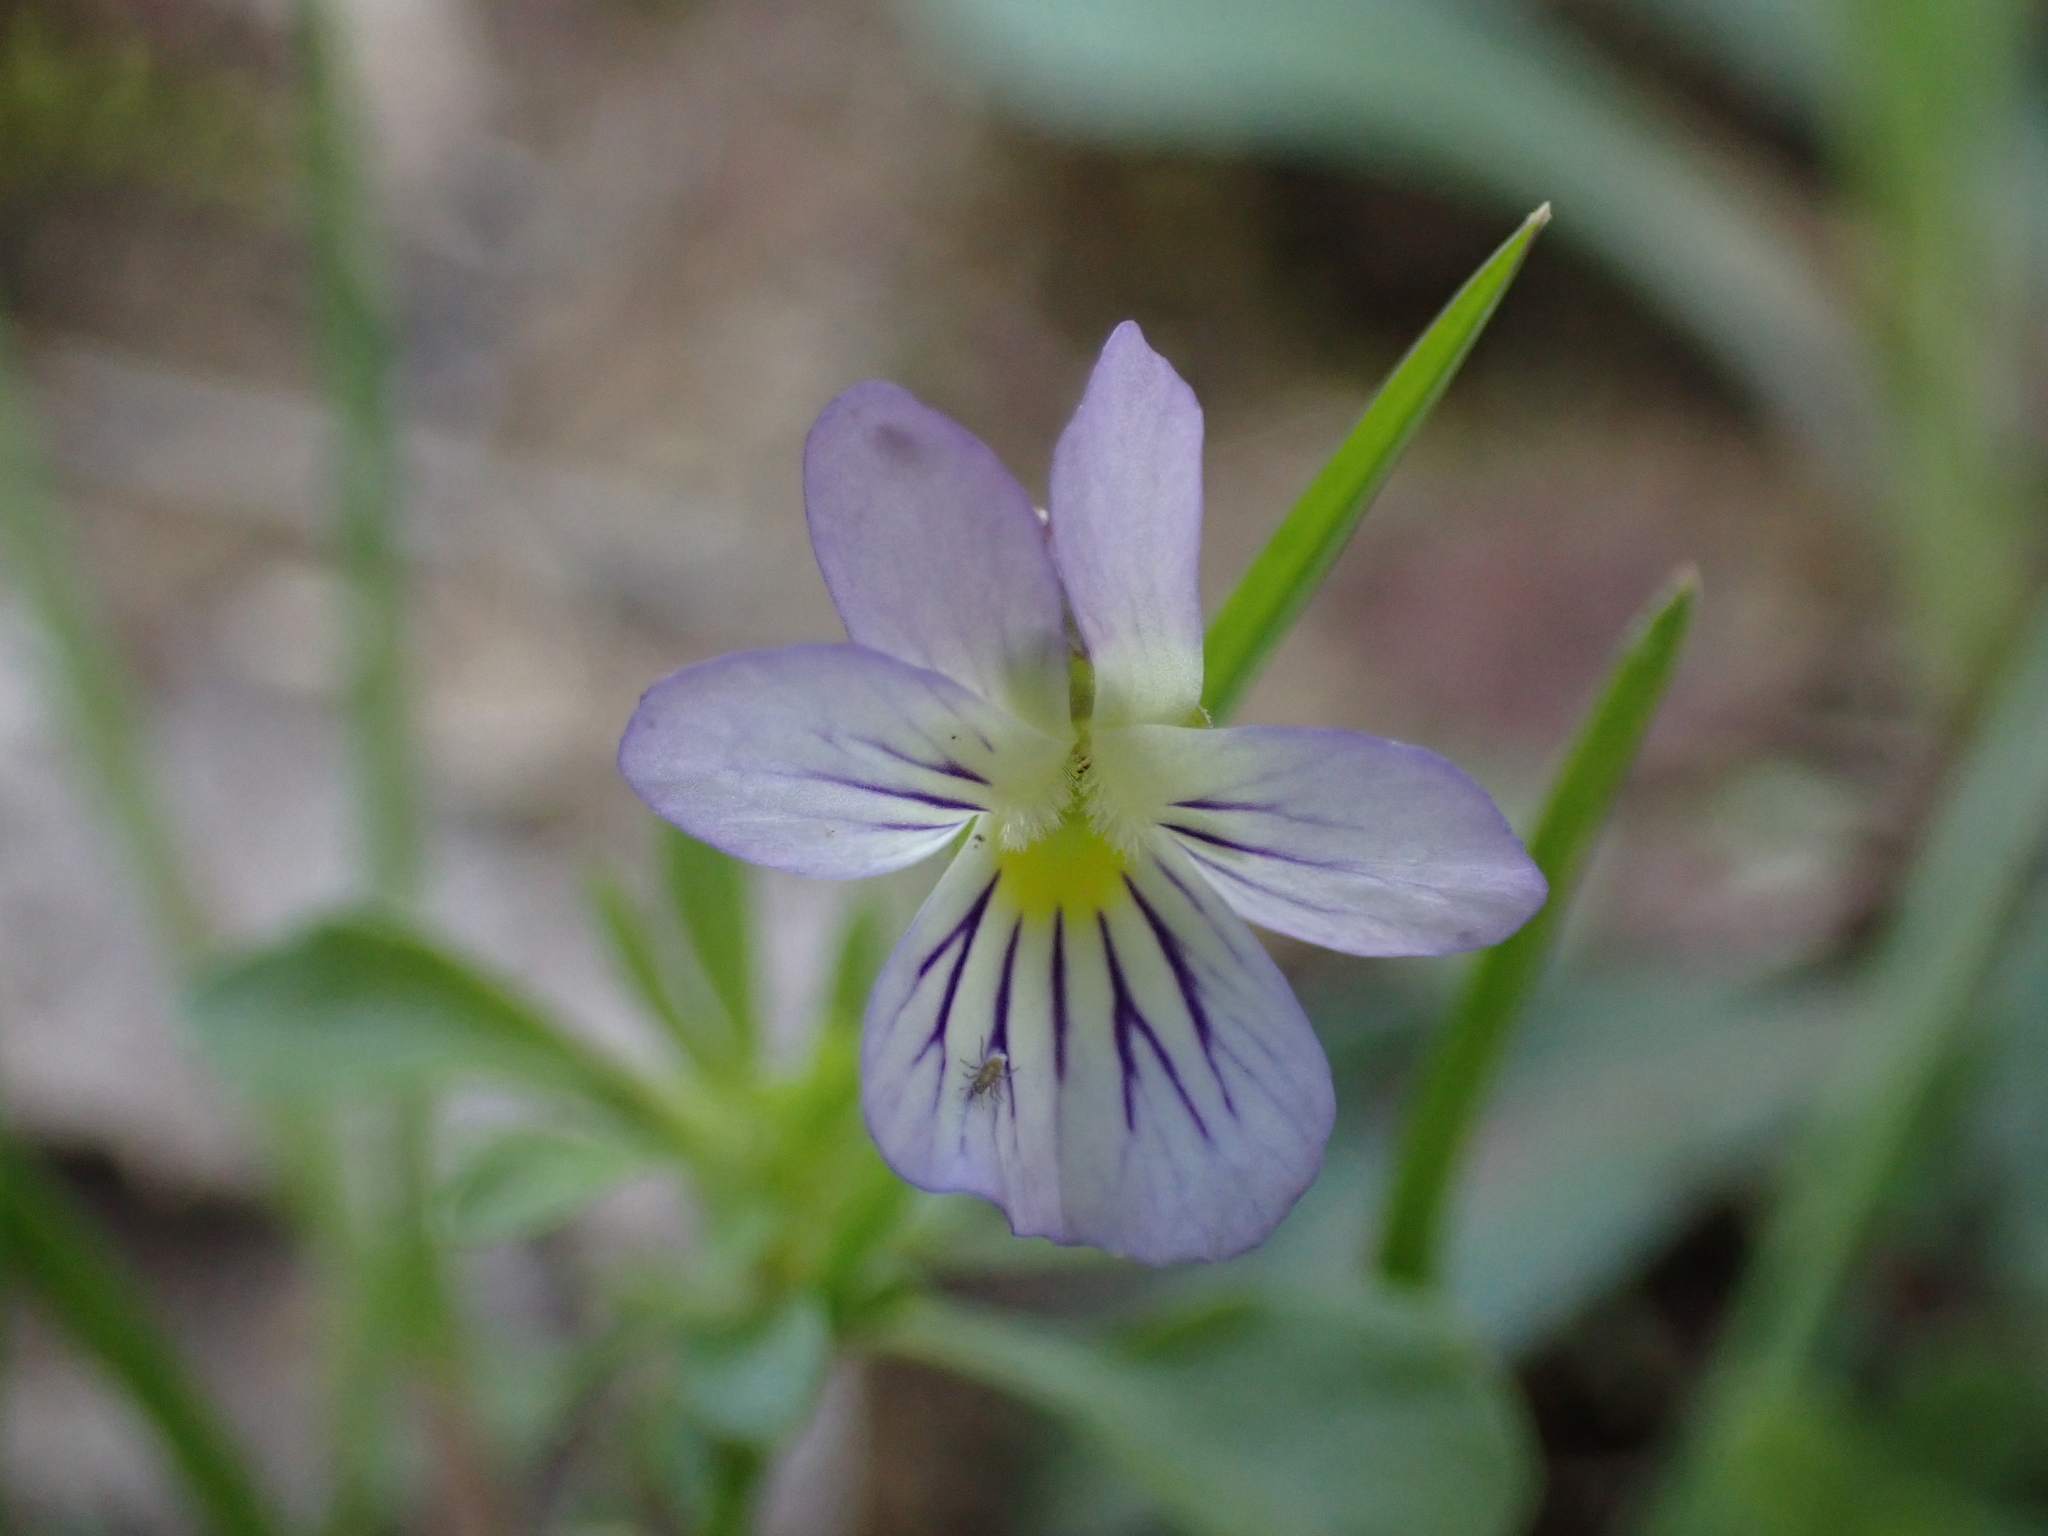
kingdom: Plantae
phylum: Tracheophyta
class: Magnoliopsida
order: Malpighiales
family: Violaceae
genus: Viola
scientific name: Viola rafinesquei
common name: American field pansy
